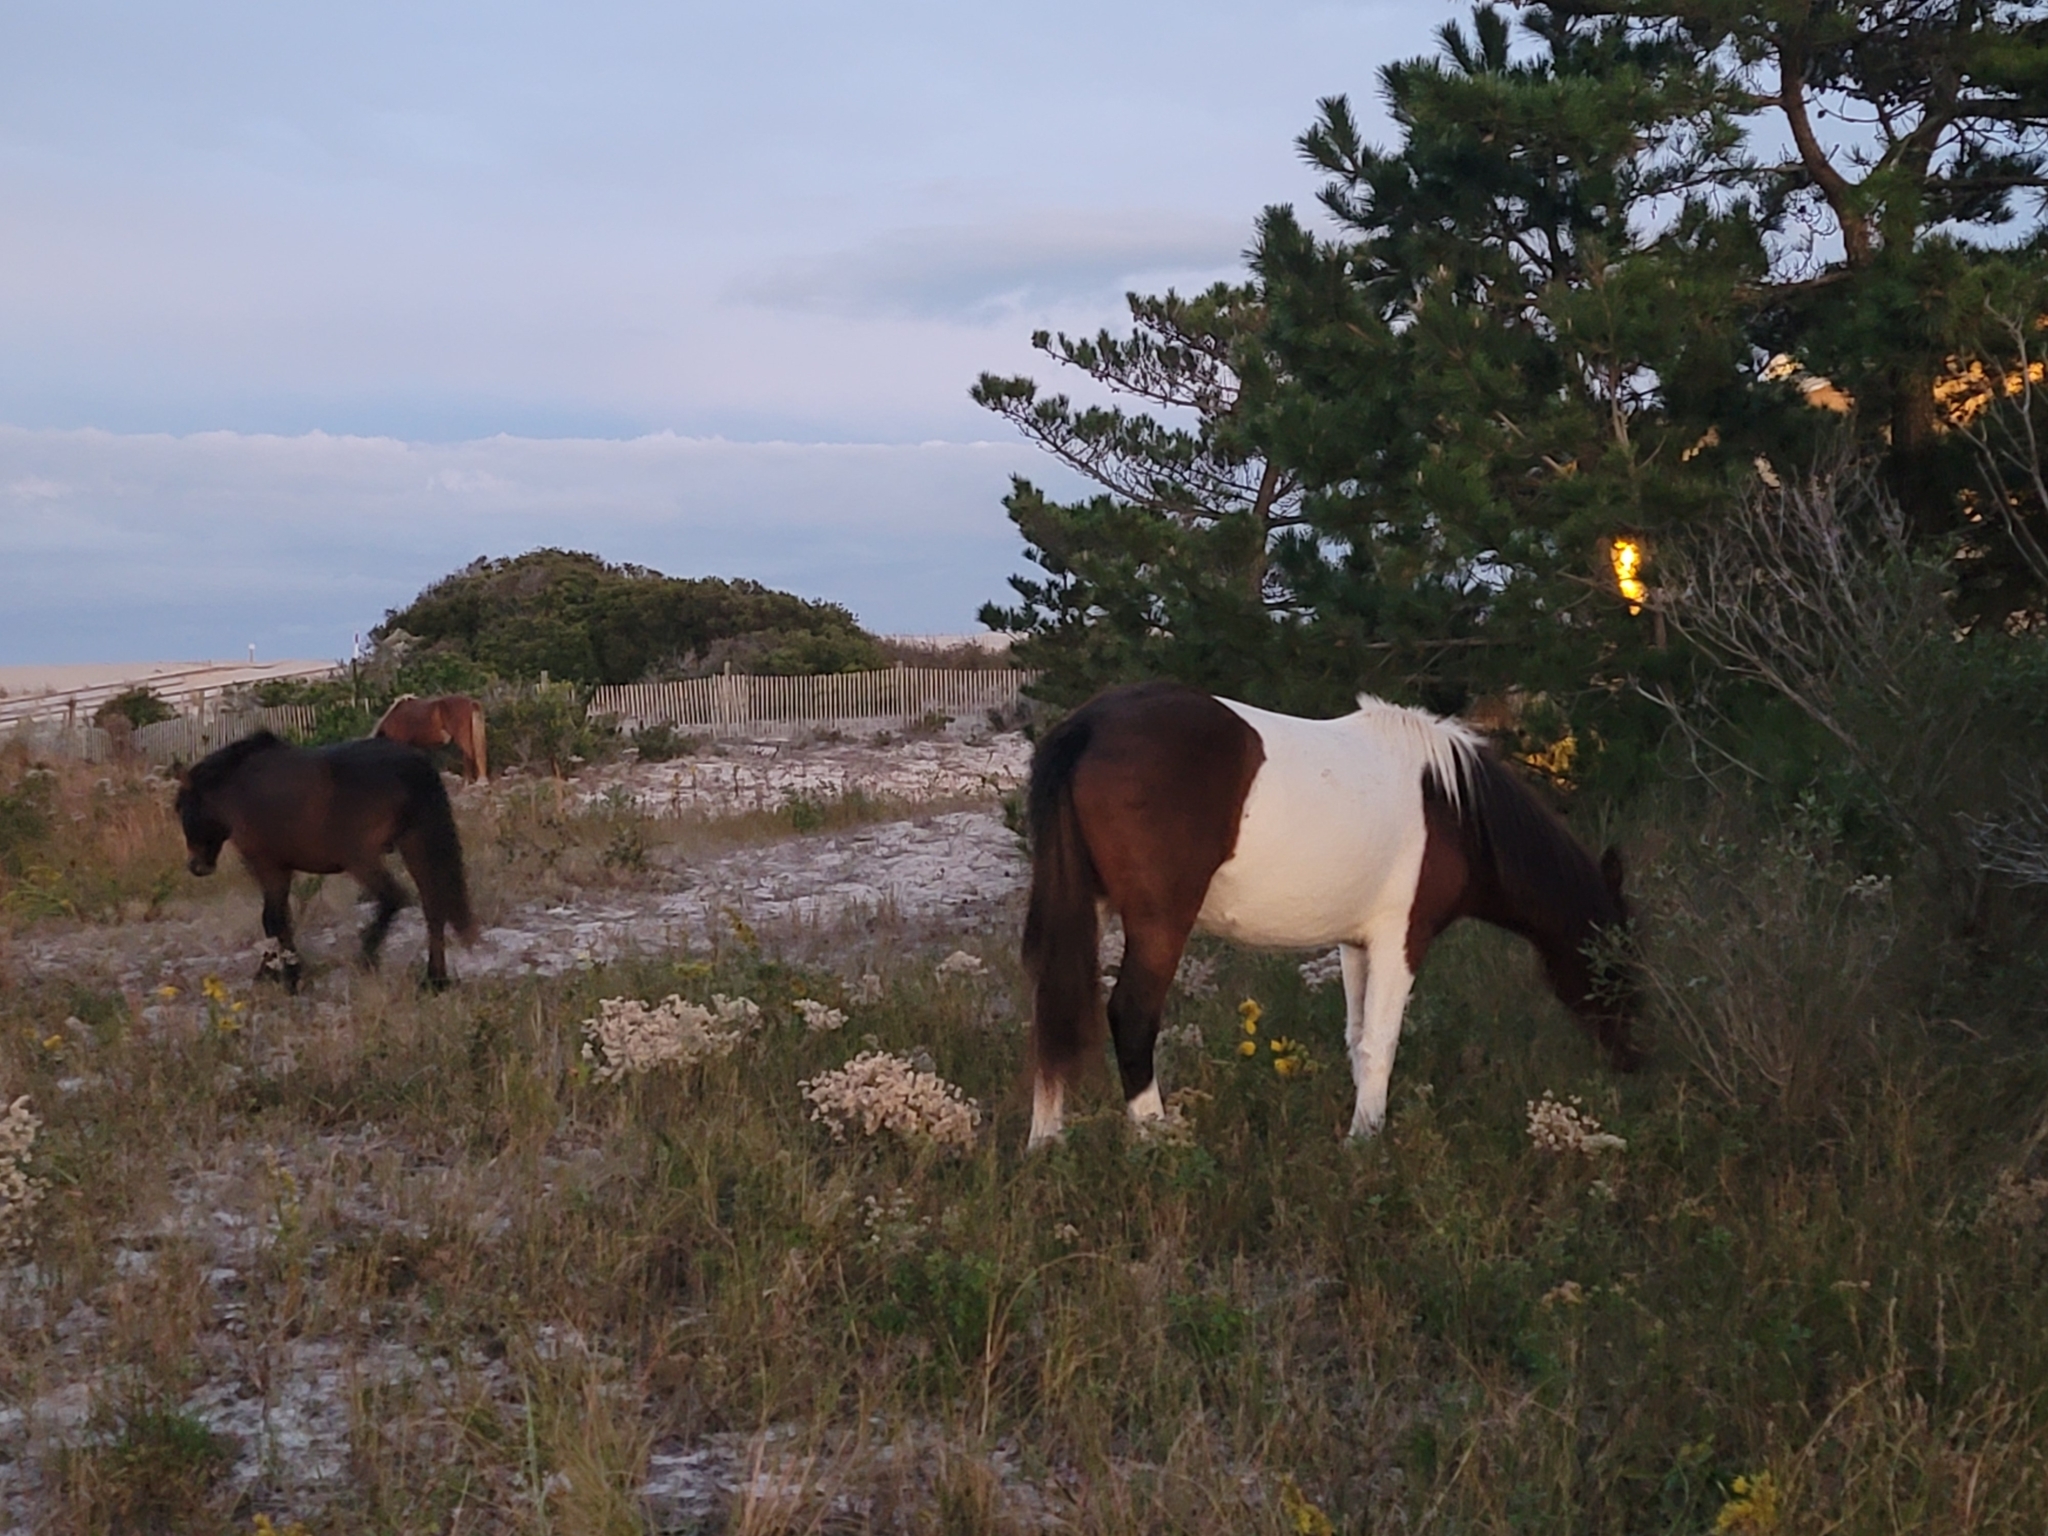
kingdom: Animalia
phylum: Chordata
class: Mammalia
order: Perissodactyla
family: Equidae
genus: Equus
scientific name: Equus caballus
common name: Horse
